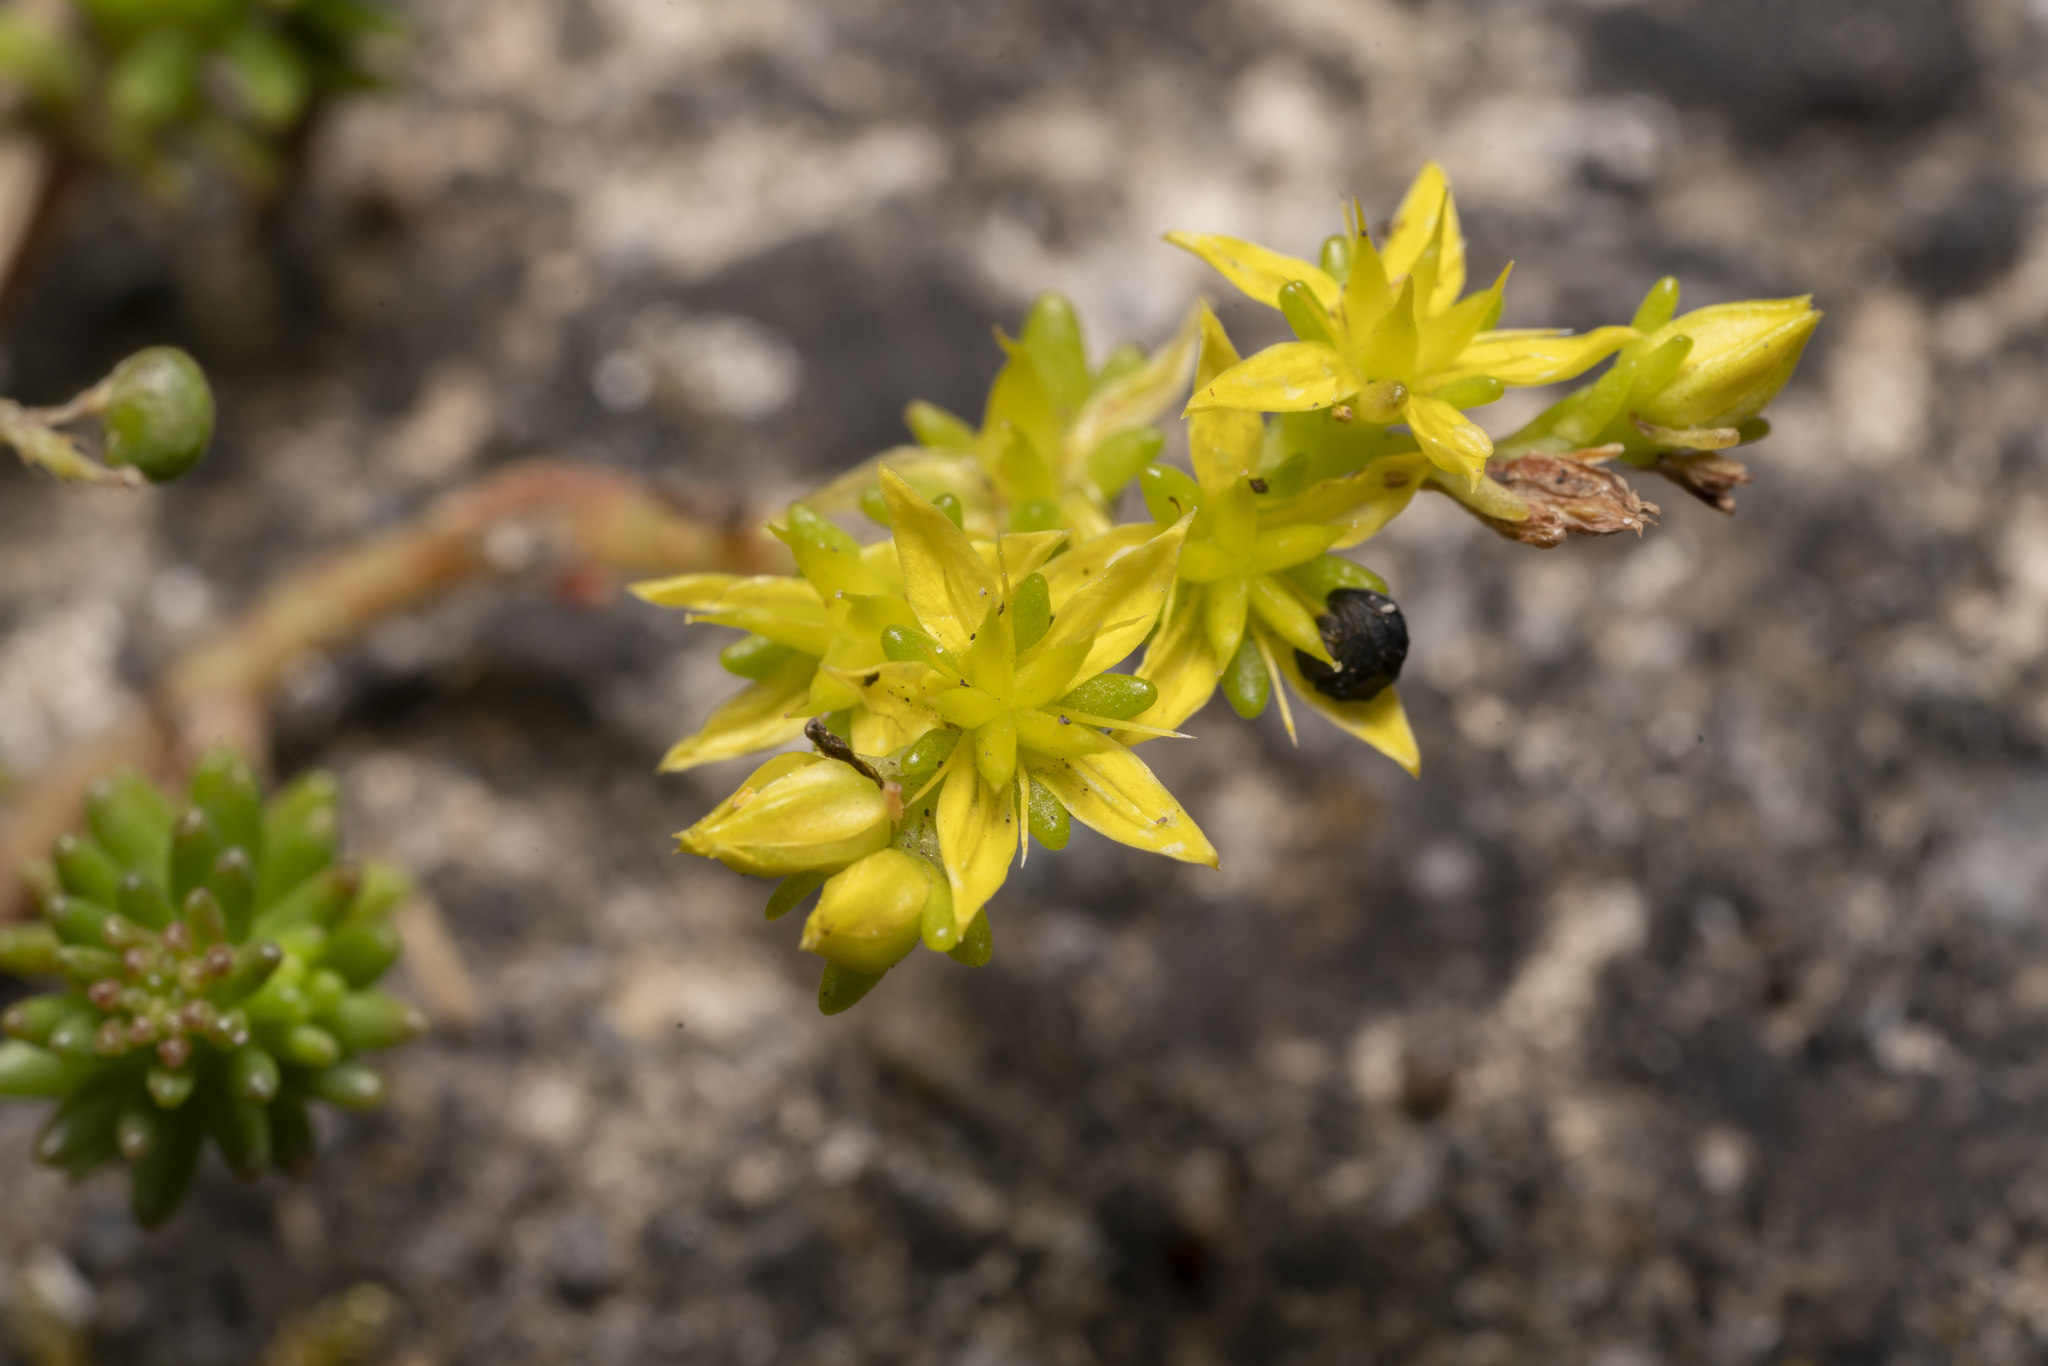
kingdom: Plantae
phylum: Tracheophyta
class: Magnoliopsida
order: Saxifragales
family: Crassulaceae
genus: Sedum
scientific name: Sedum sexangulare
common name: Tasteless stonecrop
